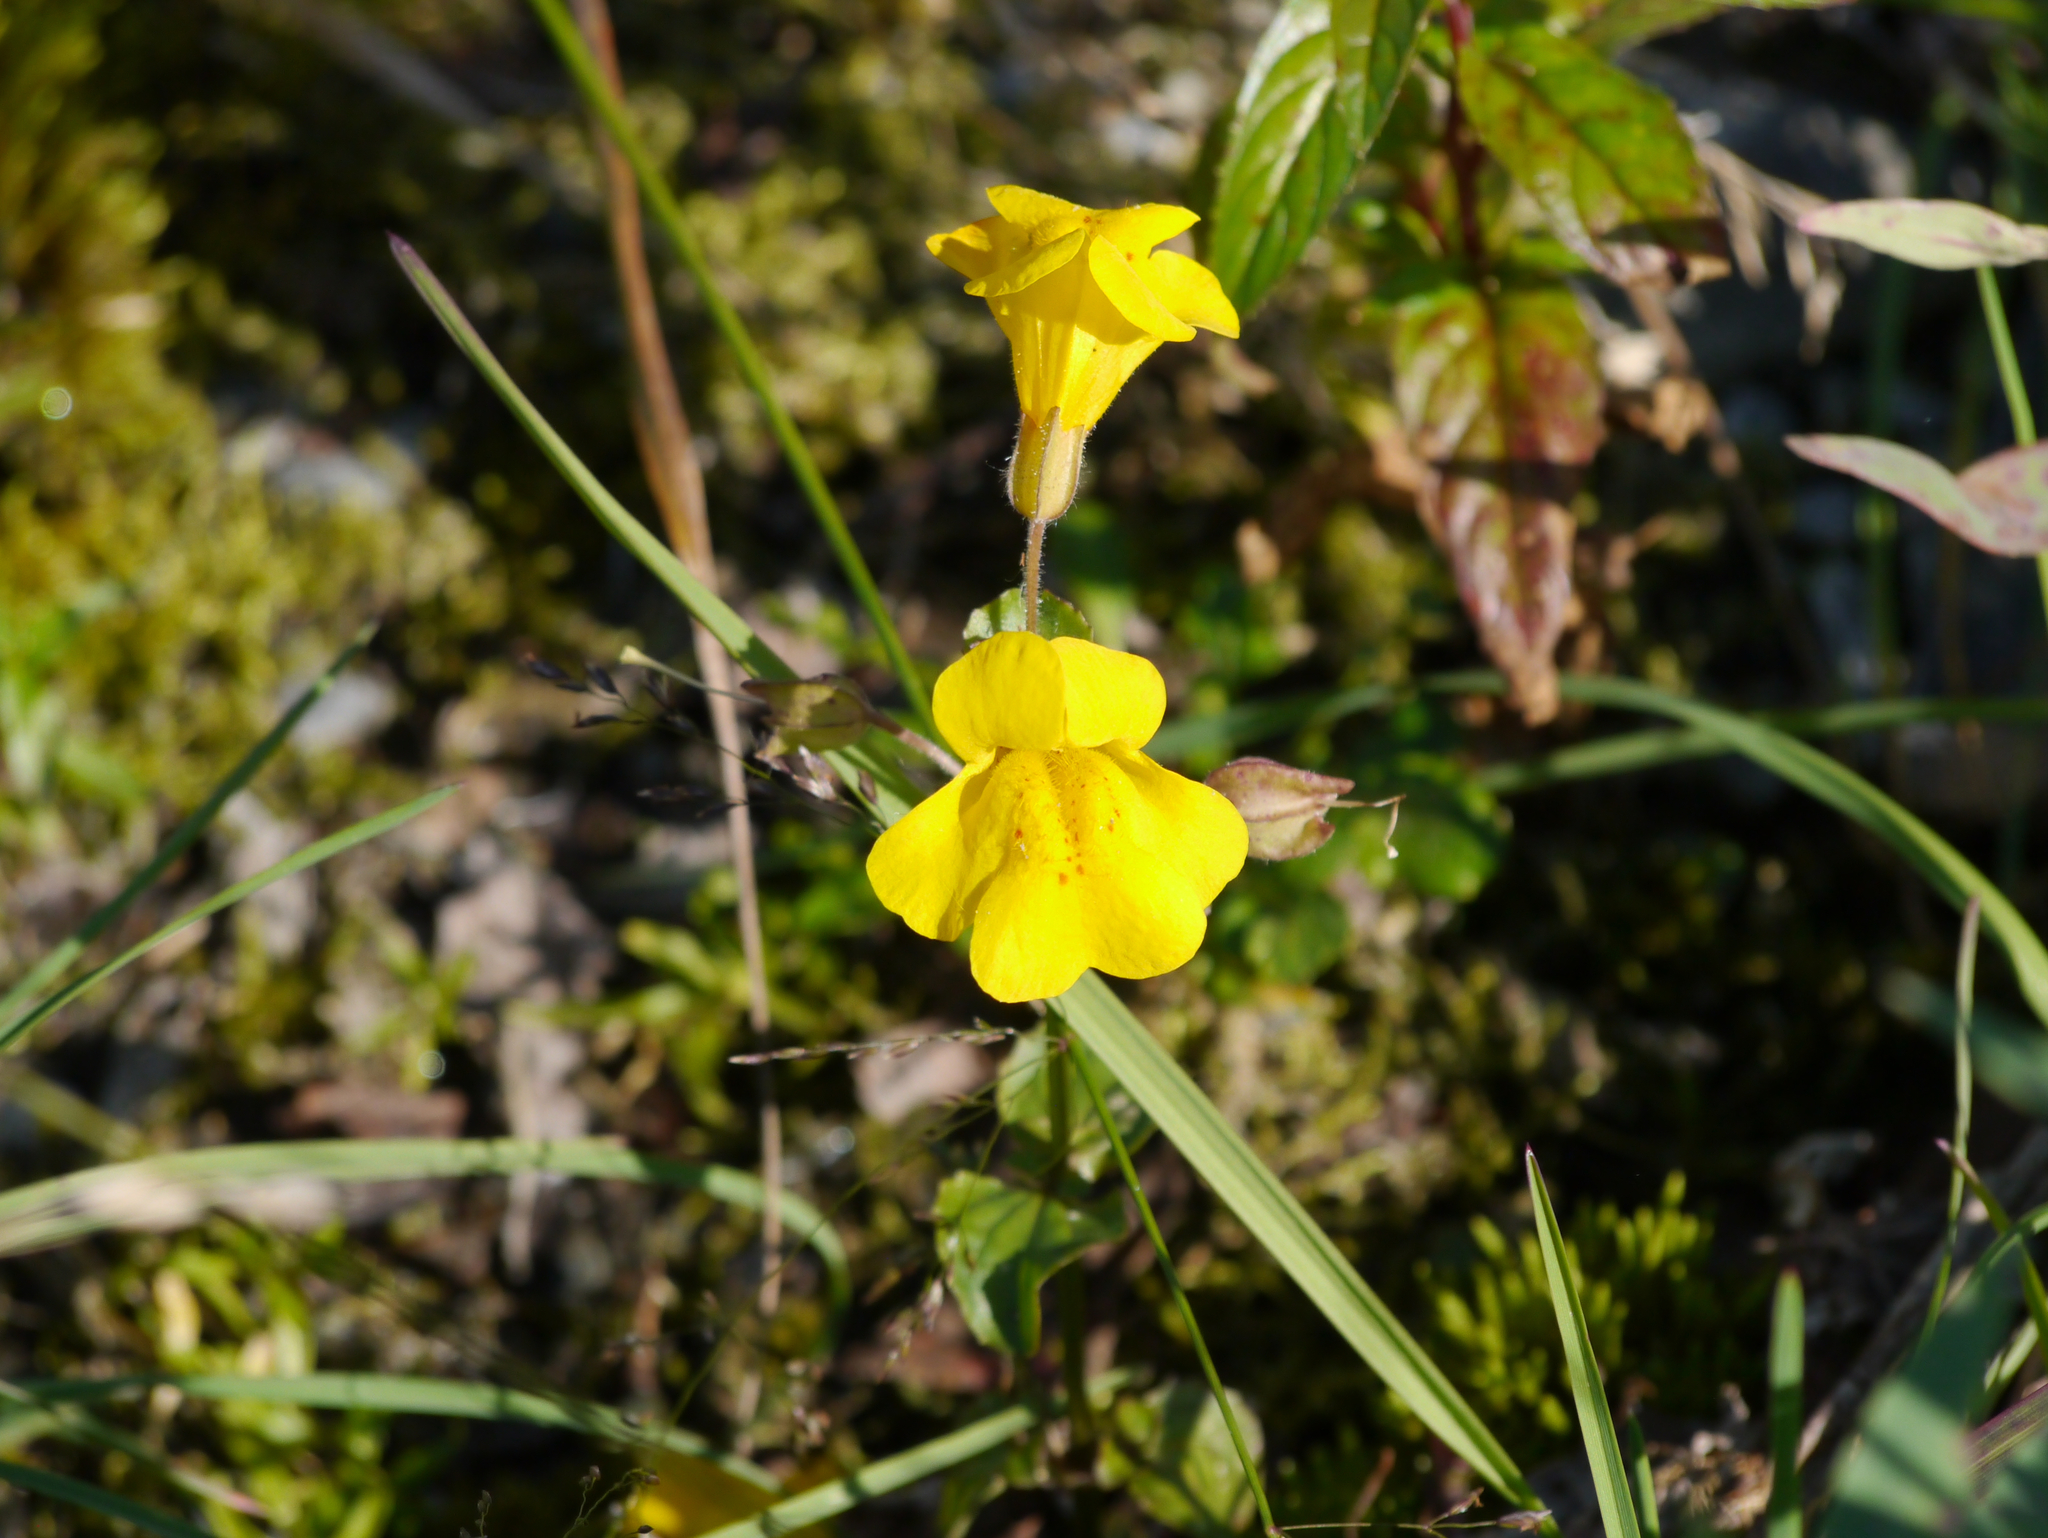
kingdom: Plantae
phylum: Tracheophyta
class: Magnoliopsida
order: Lamiales
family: Phrymaceae
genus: Erythranthe
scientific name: Erythranthe guttata
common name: Monkeyflower
